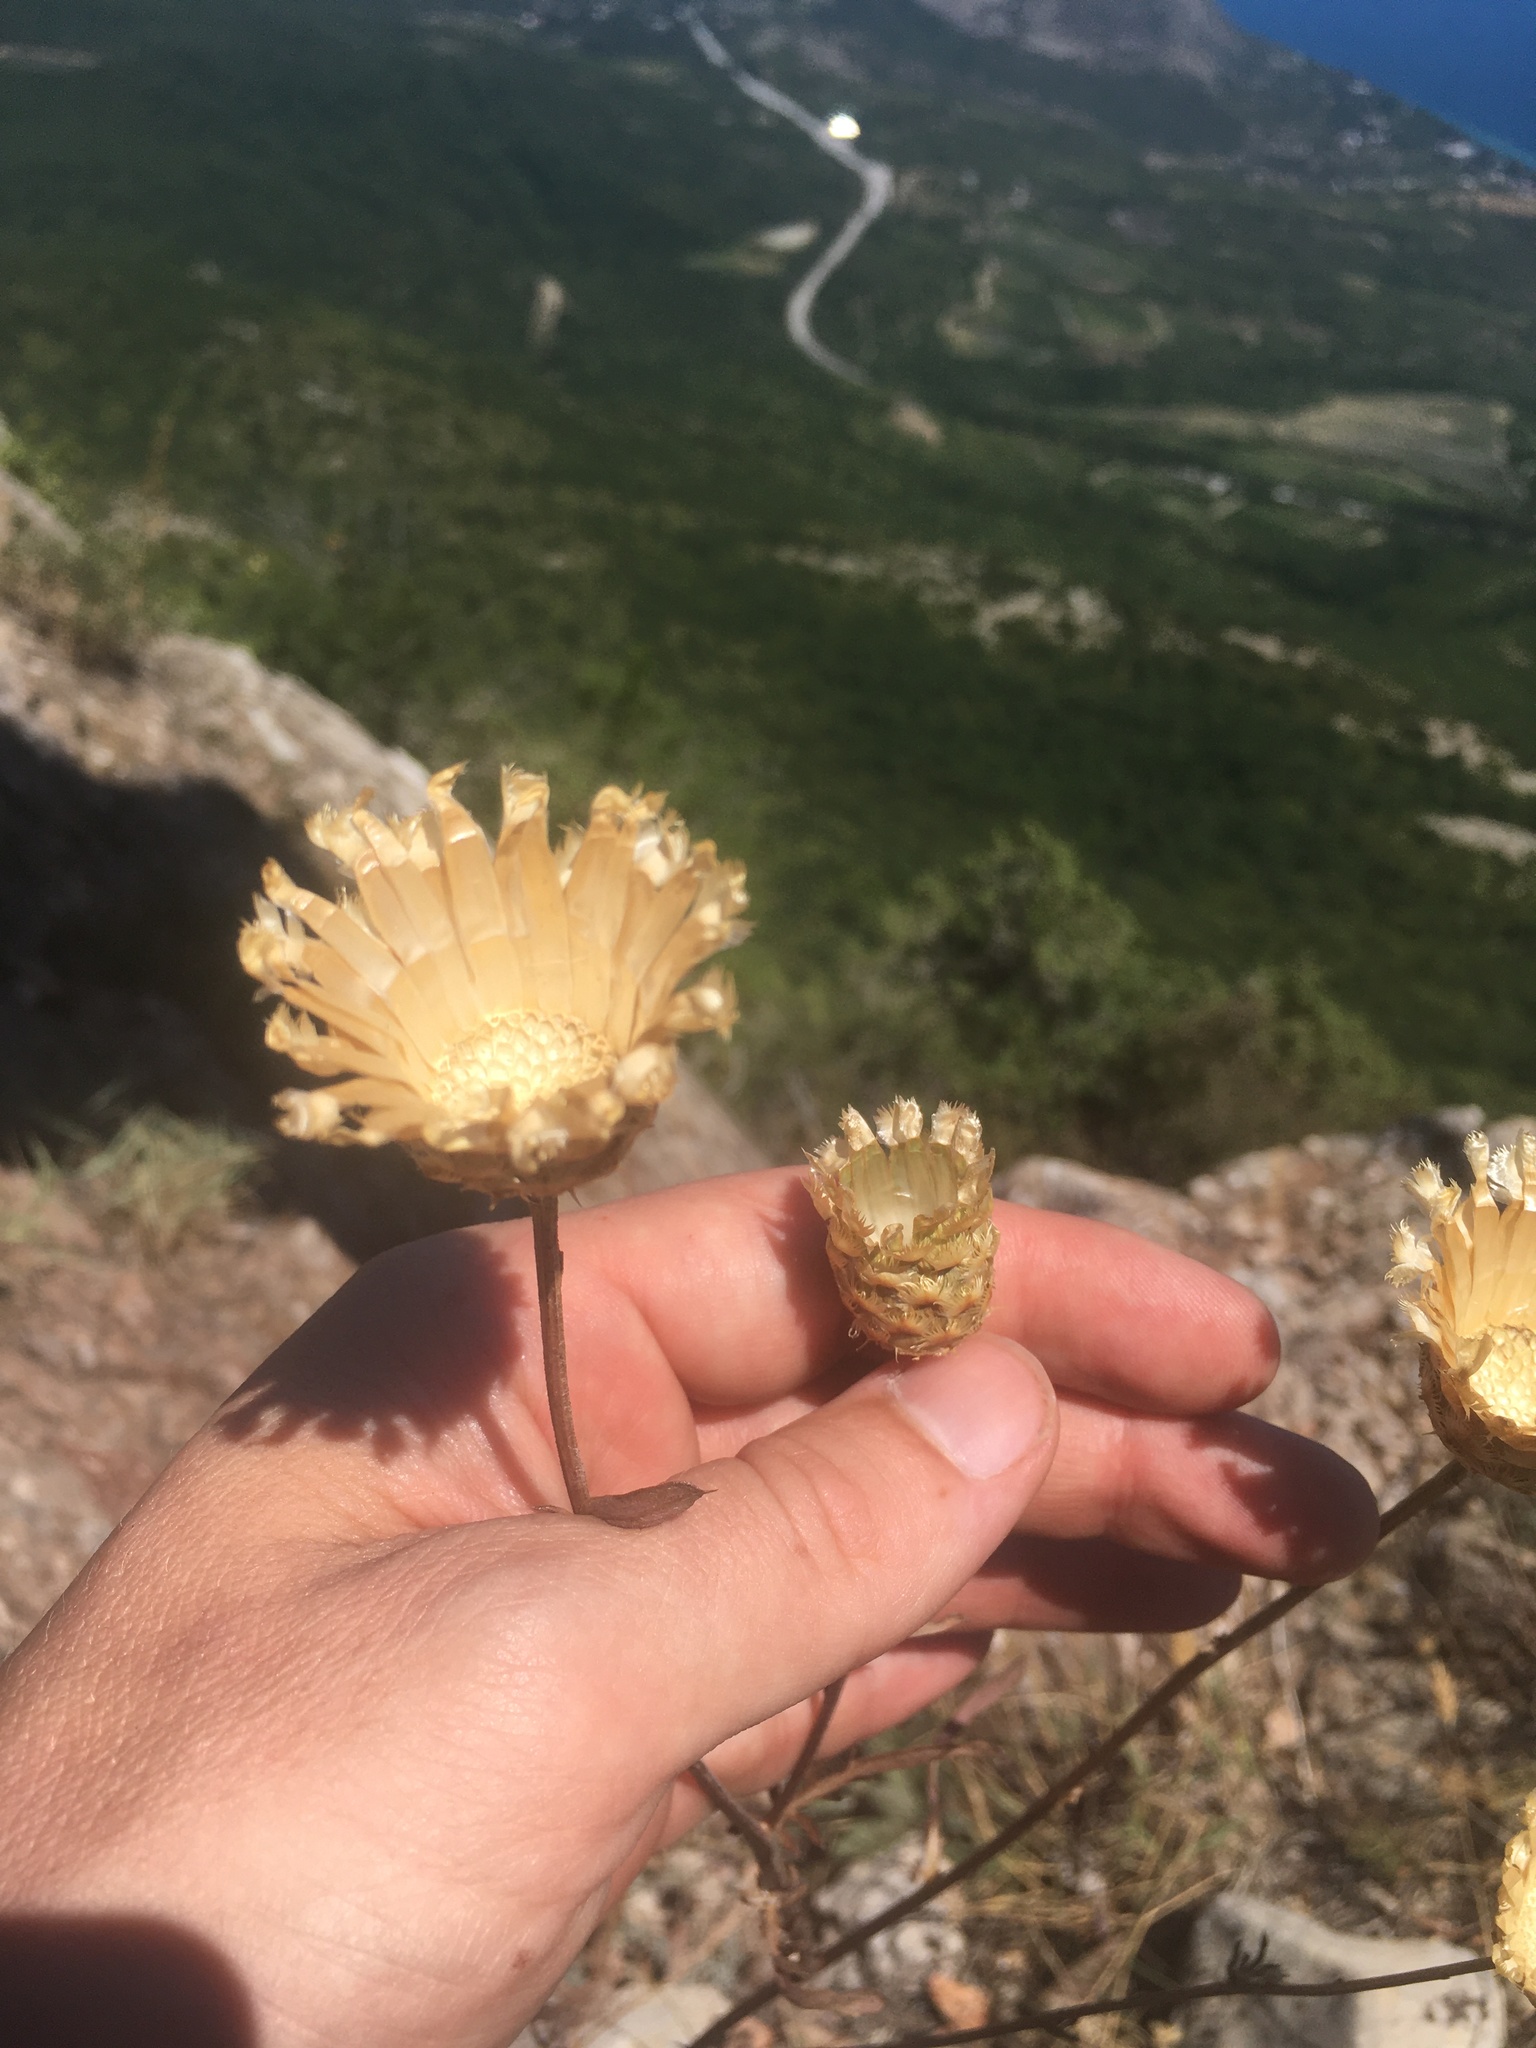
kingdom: Plantae
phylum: Tracheophyta
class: Magnoliopsida
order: Asterales
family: Asteraceae
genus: Centaurea
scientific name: Centaurea orientalis
